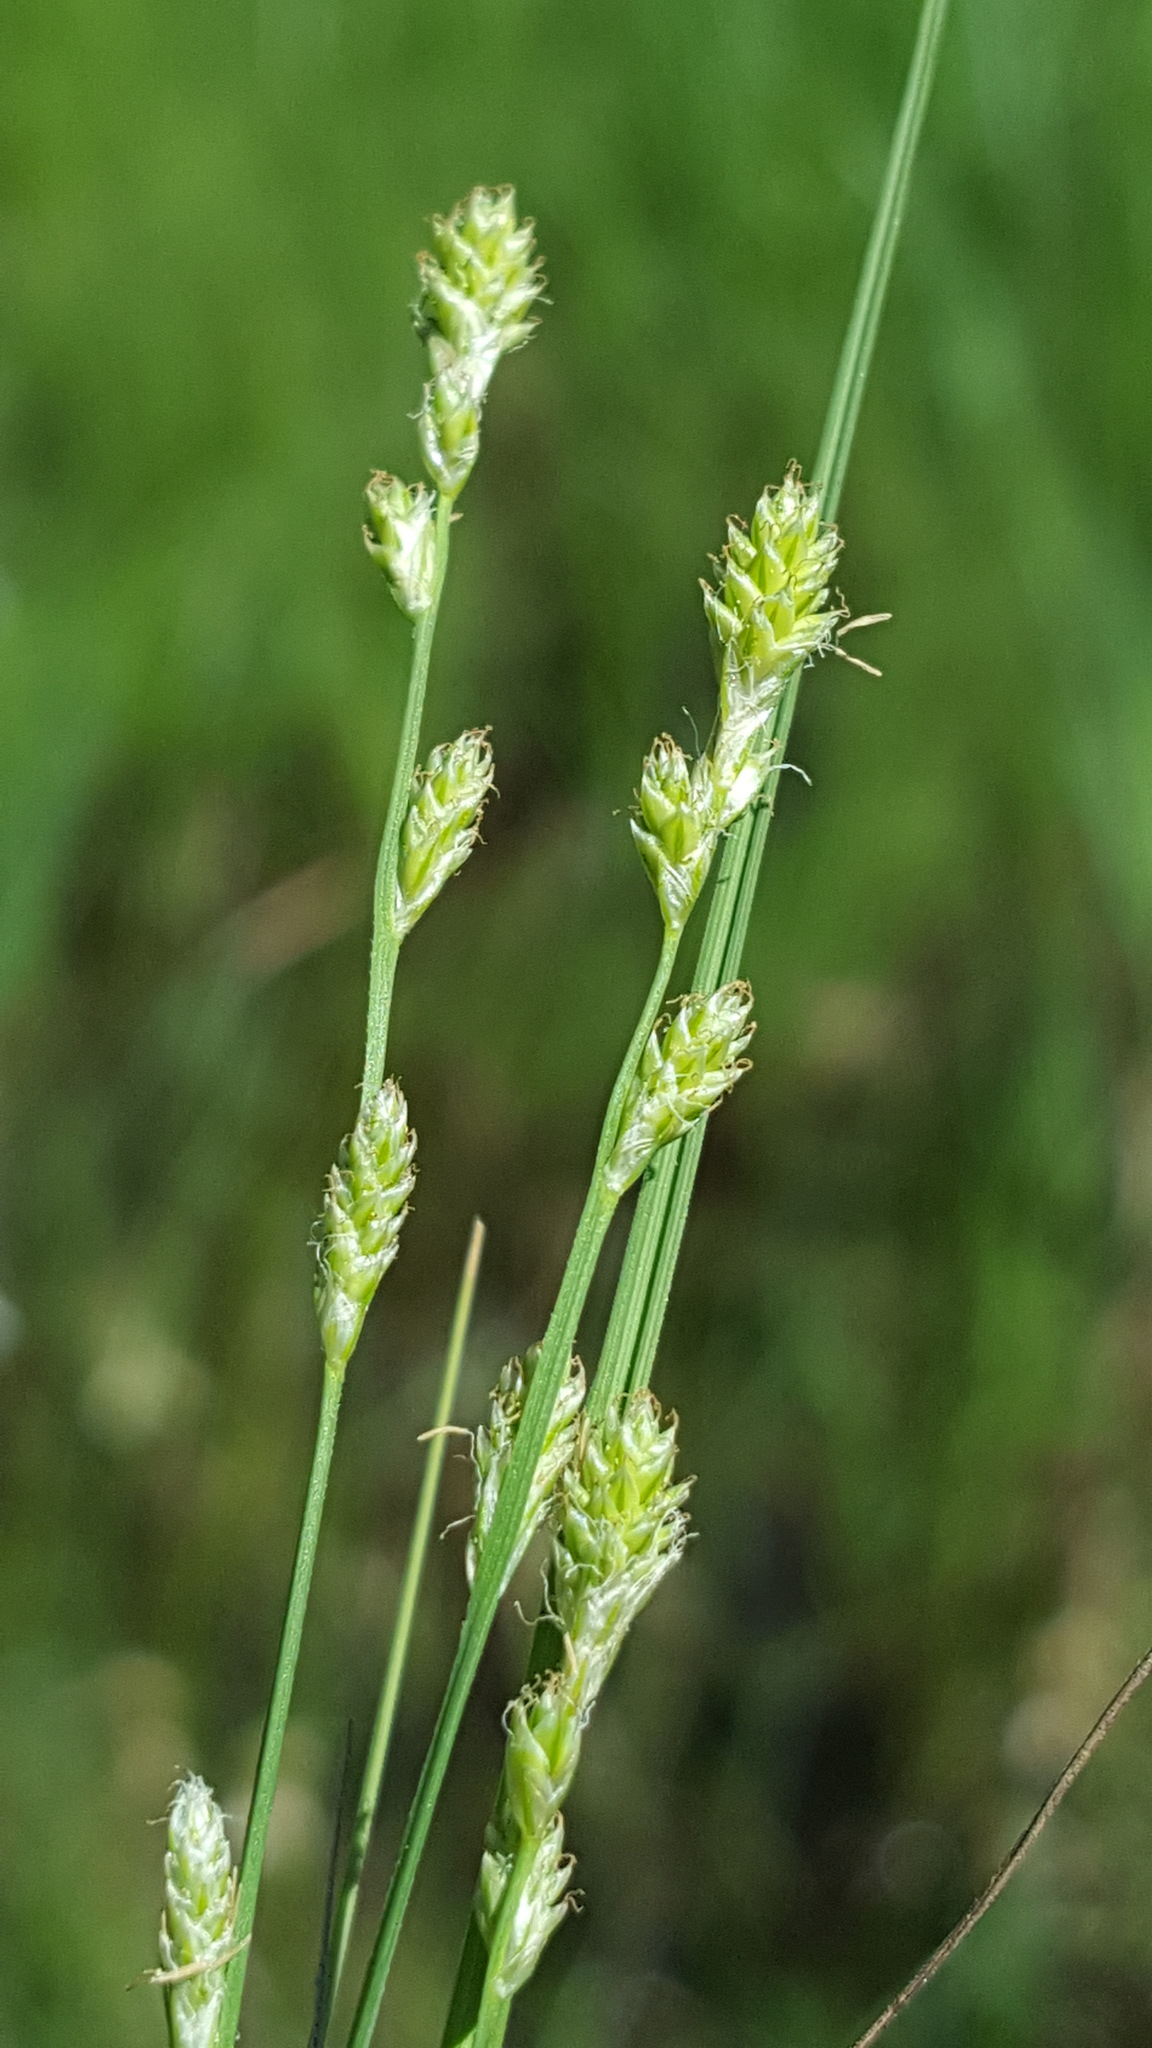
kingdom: Plantae
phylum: Tracheophyta
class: Liliopsida
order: Poales
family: Cyperaceae
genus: Carex
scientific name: Carex canescens
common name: White sedge
